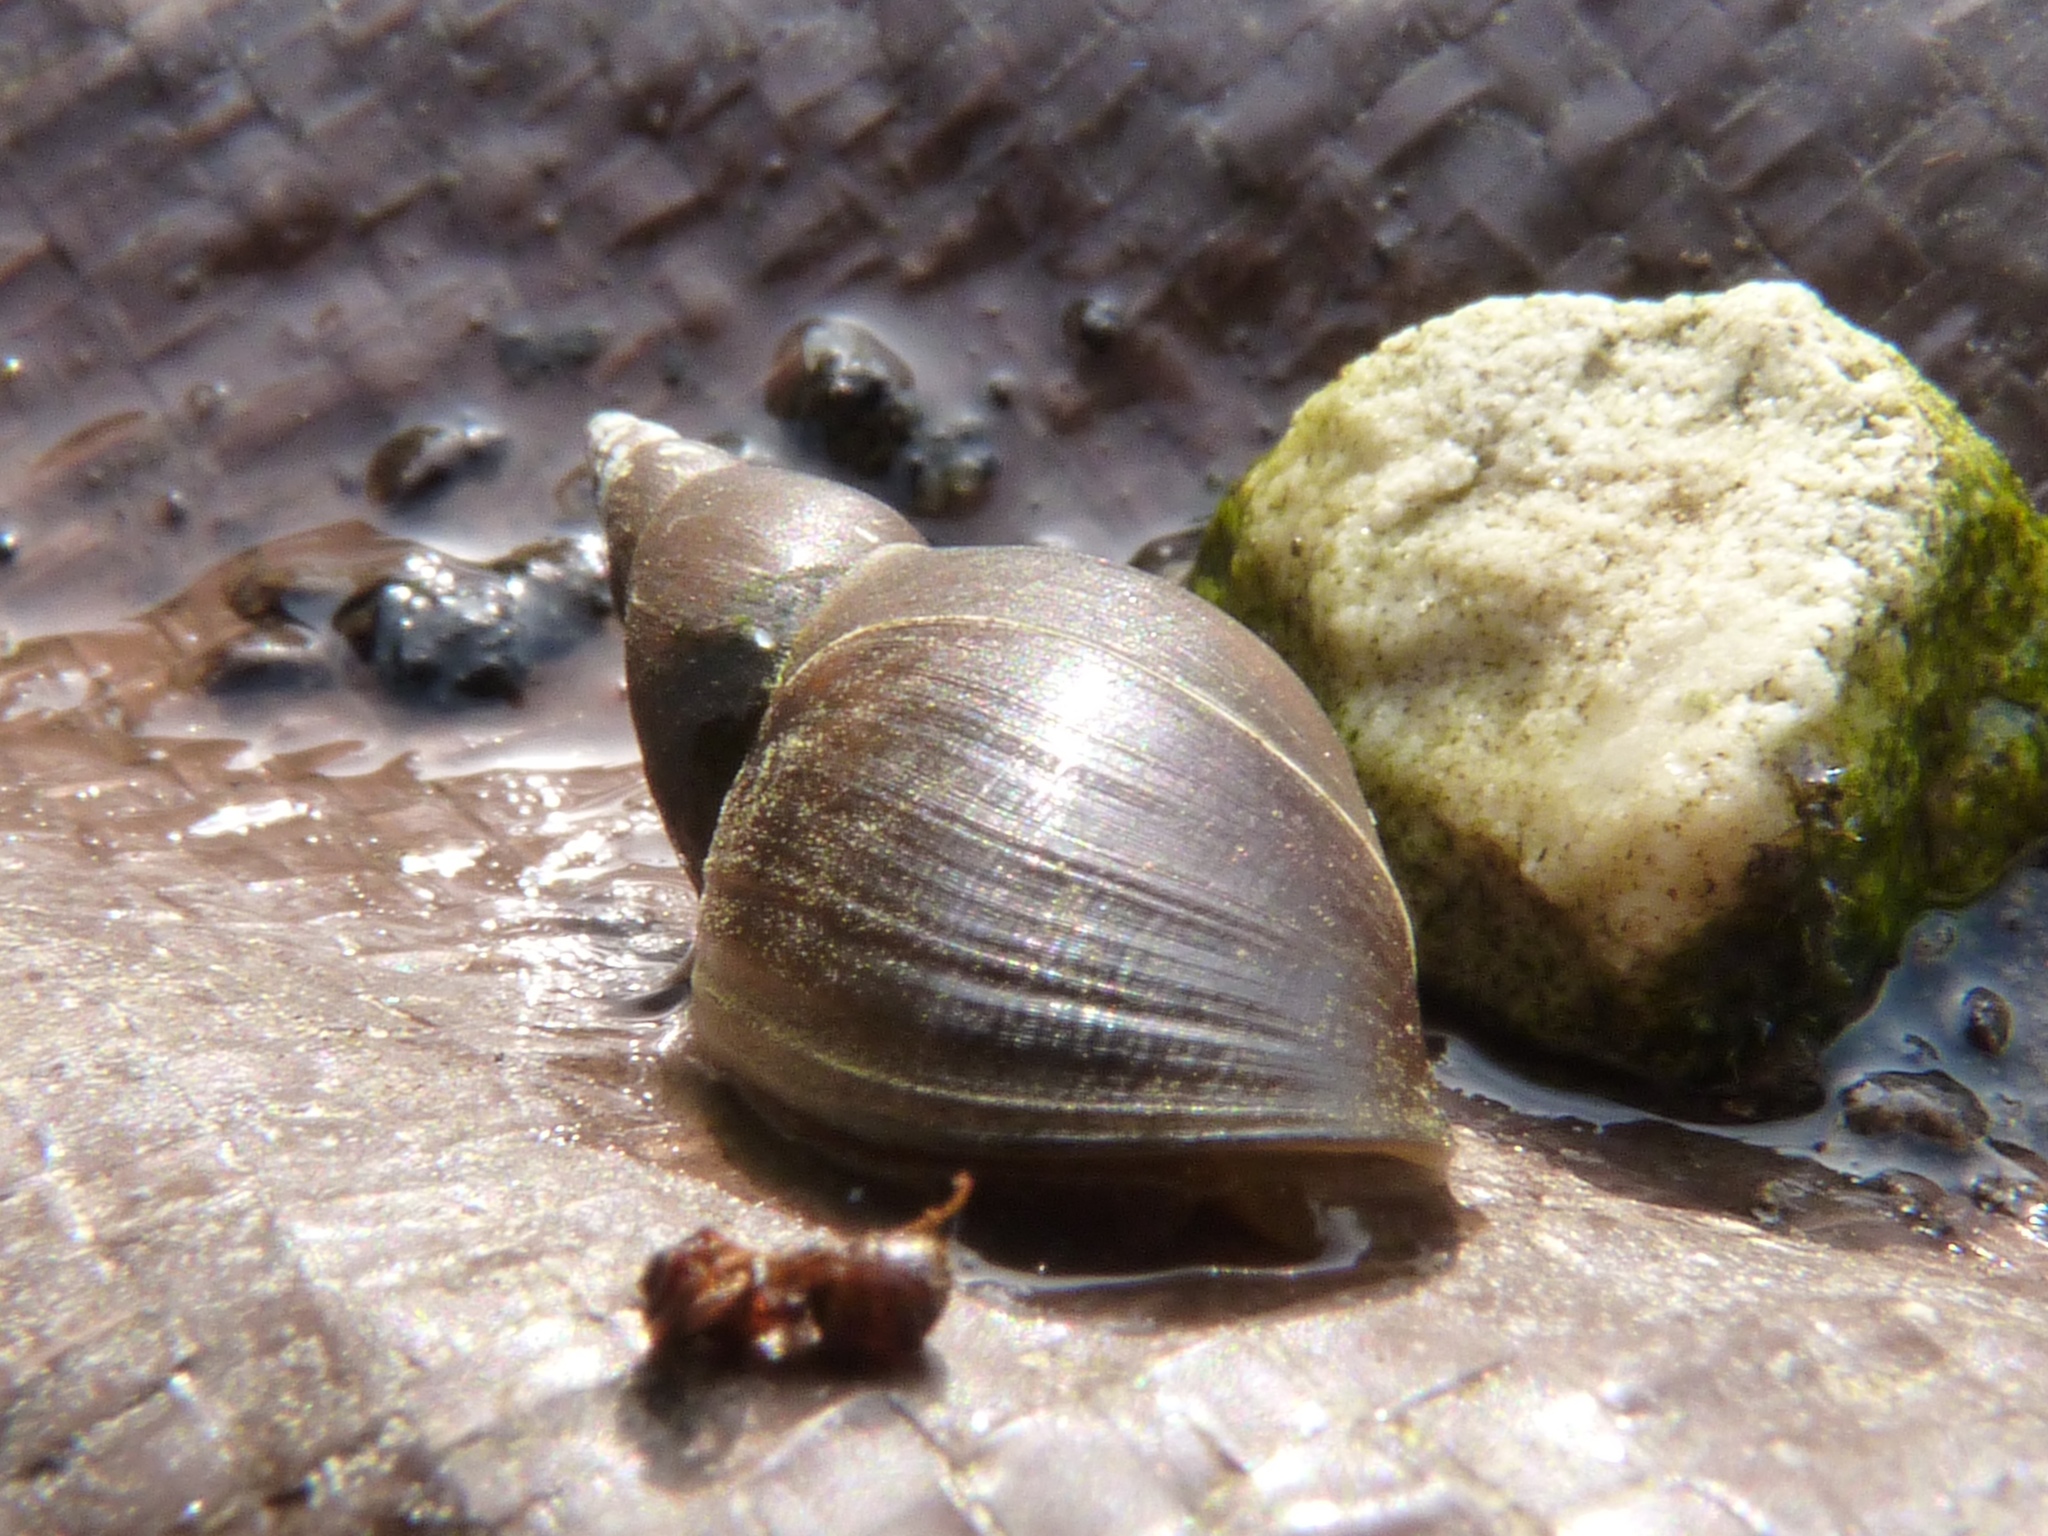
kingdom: Animalia
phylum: Mollusca
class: Gastropoda
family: Lymnaeidae
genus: Lymnaea
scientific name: Lymnaea stagnalis
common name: Great pond snail
